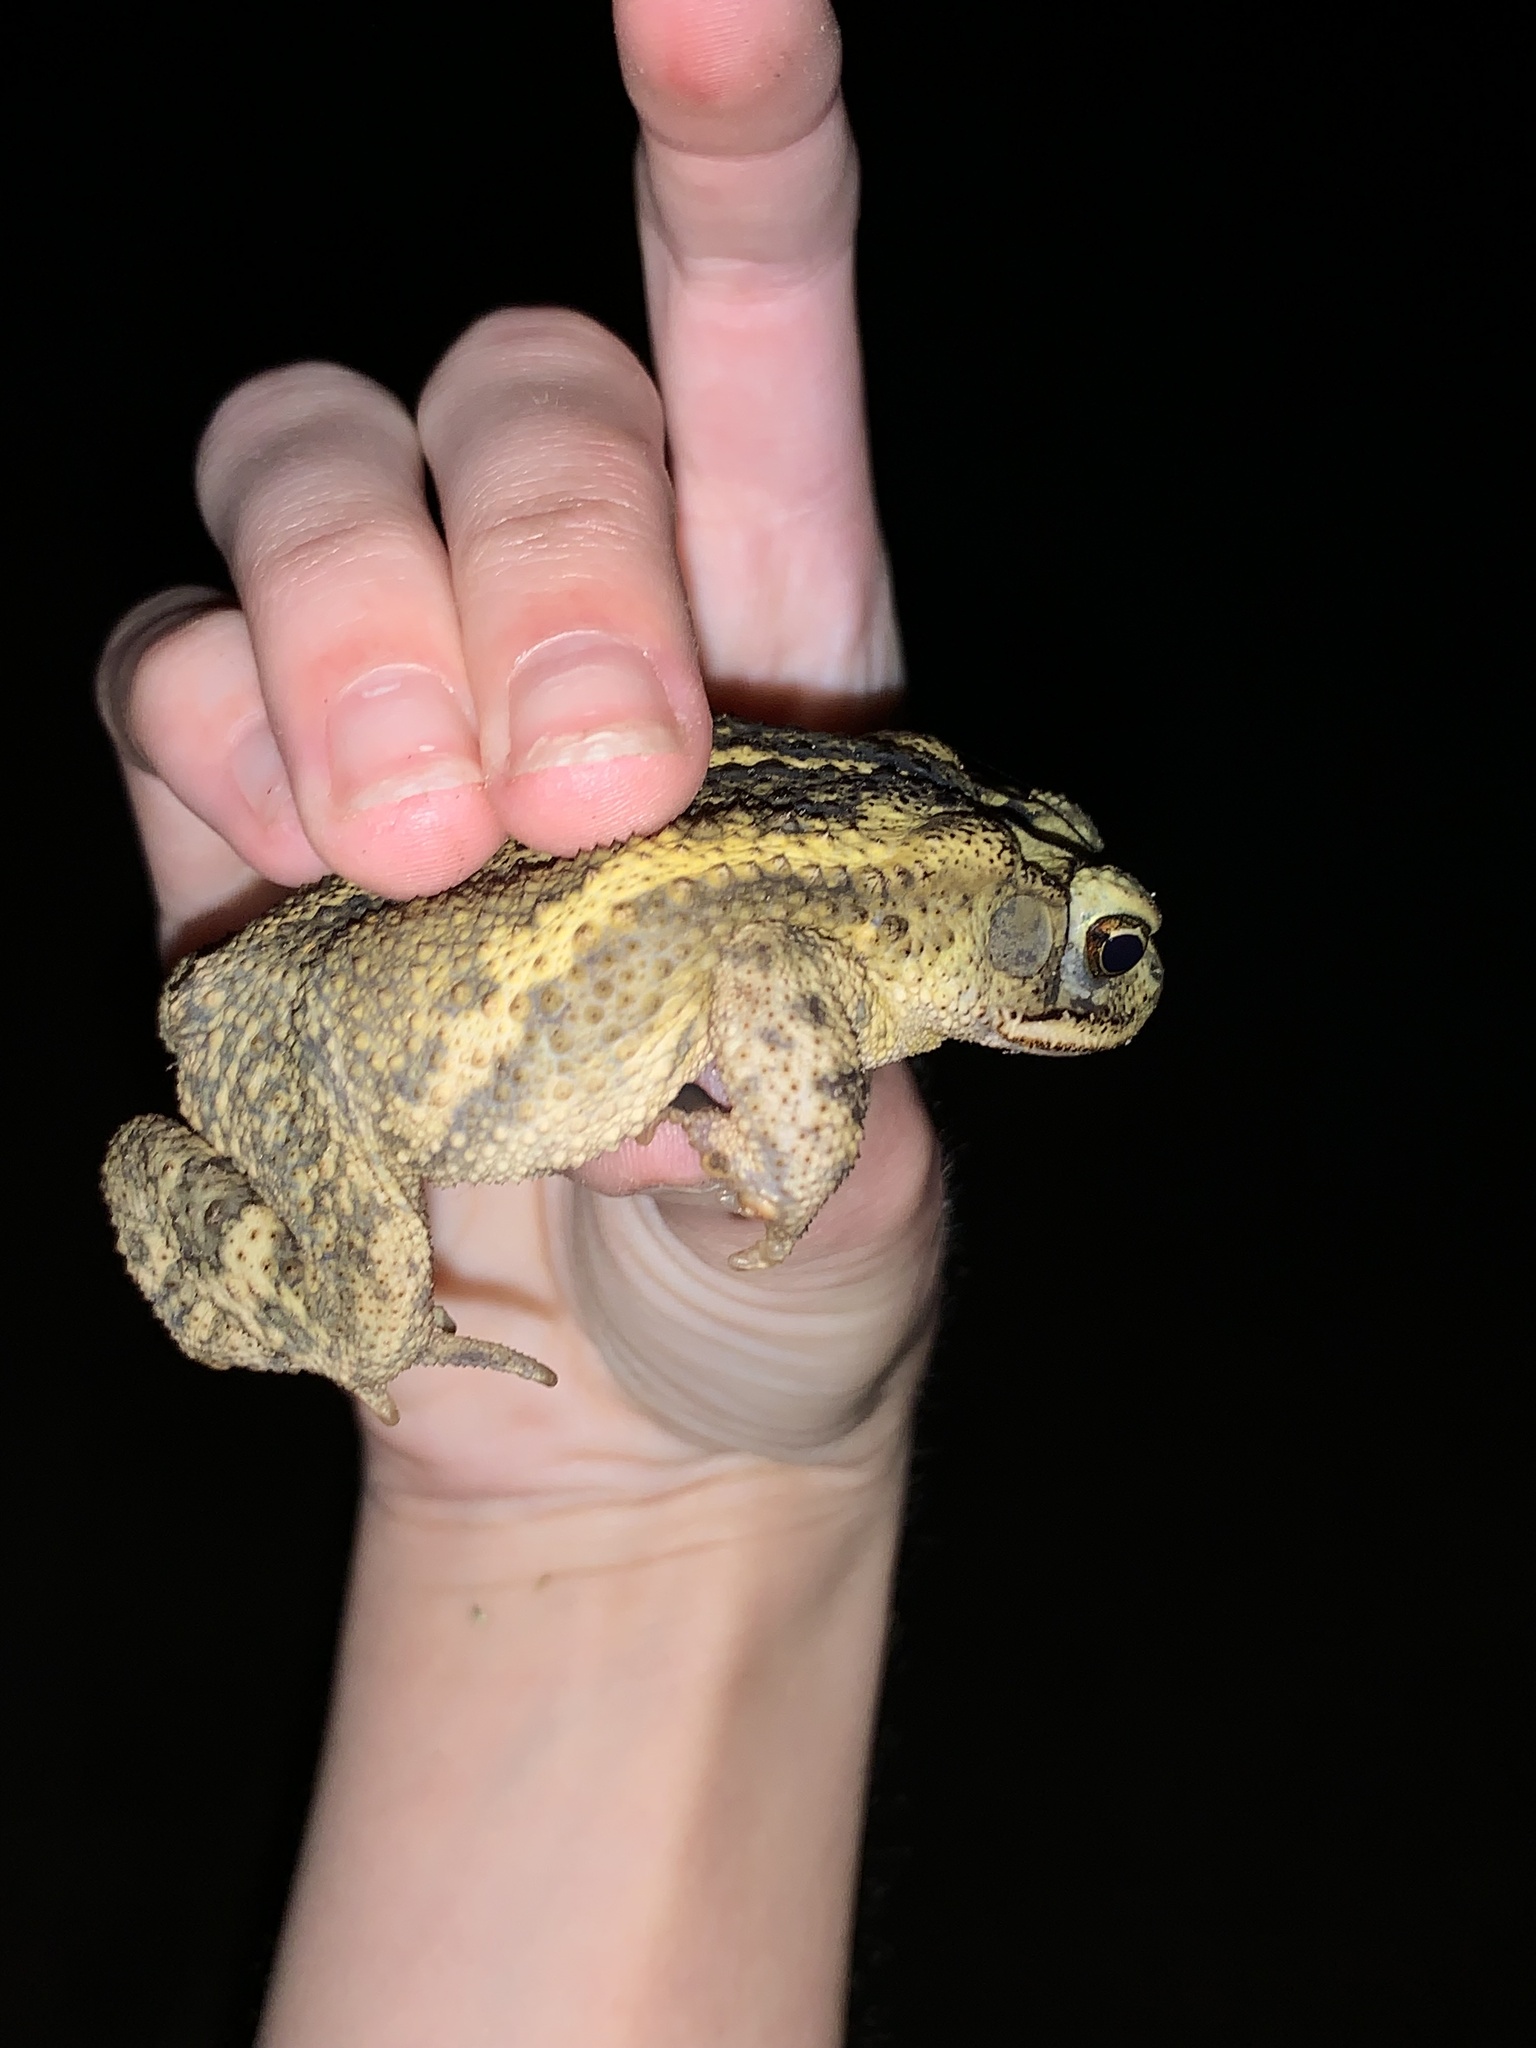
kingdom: Animalia
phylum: Chordata
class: Amphibia
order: Anura
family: Bufonidae
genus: Incilius
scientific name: Incilius nebulifer
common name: Gulf coast toad
